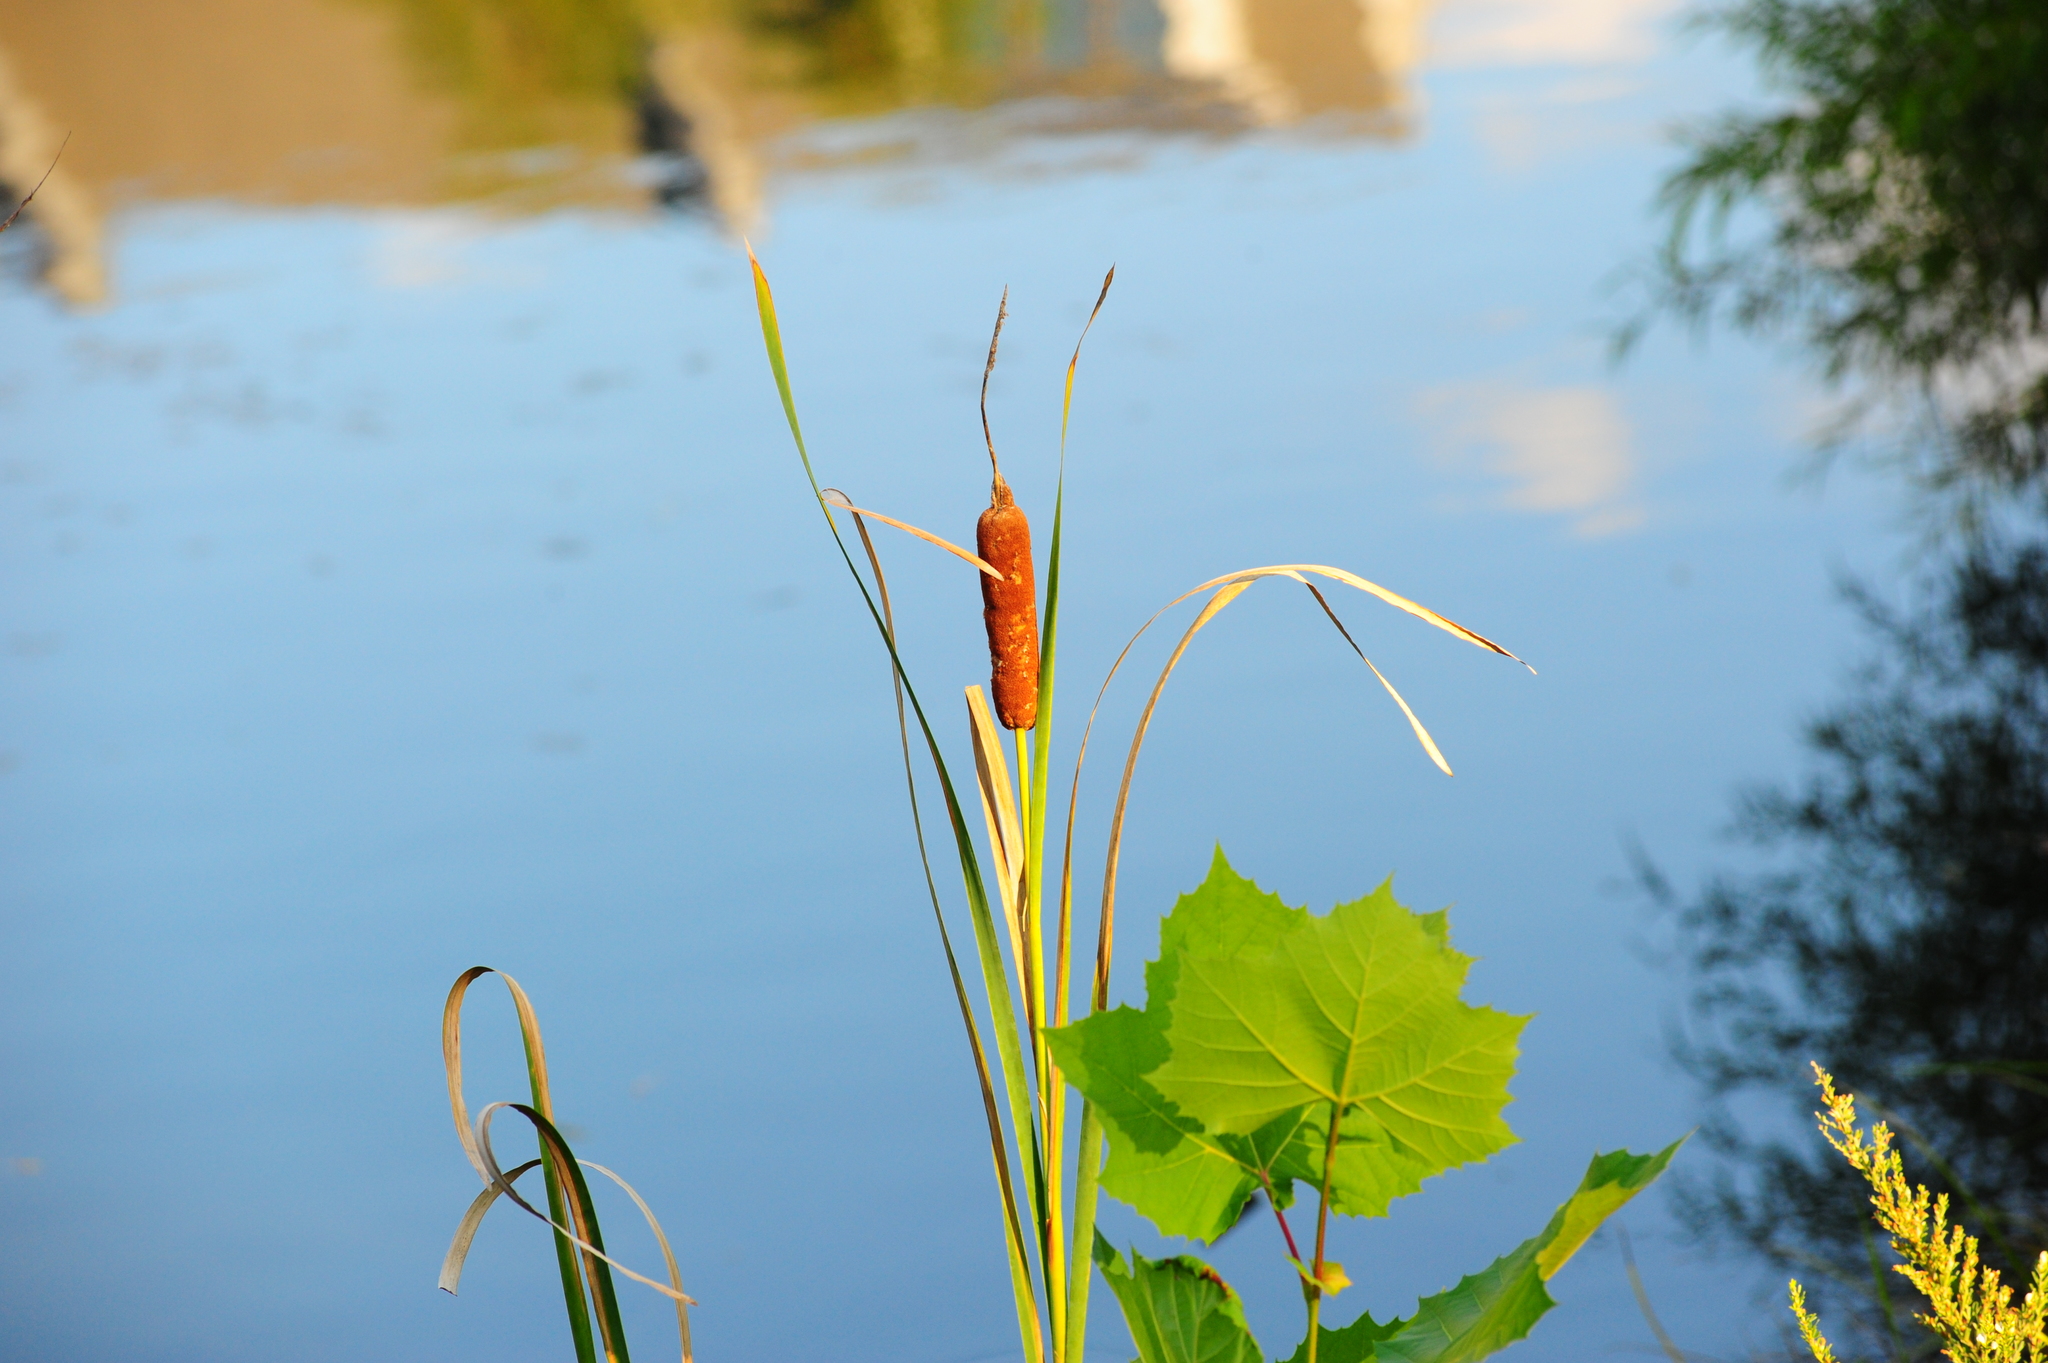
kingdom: Plantae
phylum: Tracheophyta
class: Liliopsida
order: Poales
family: Typhaceae
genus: Typha
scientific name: Typha angustifolia
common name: Lesser bulrush
